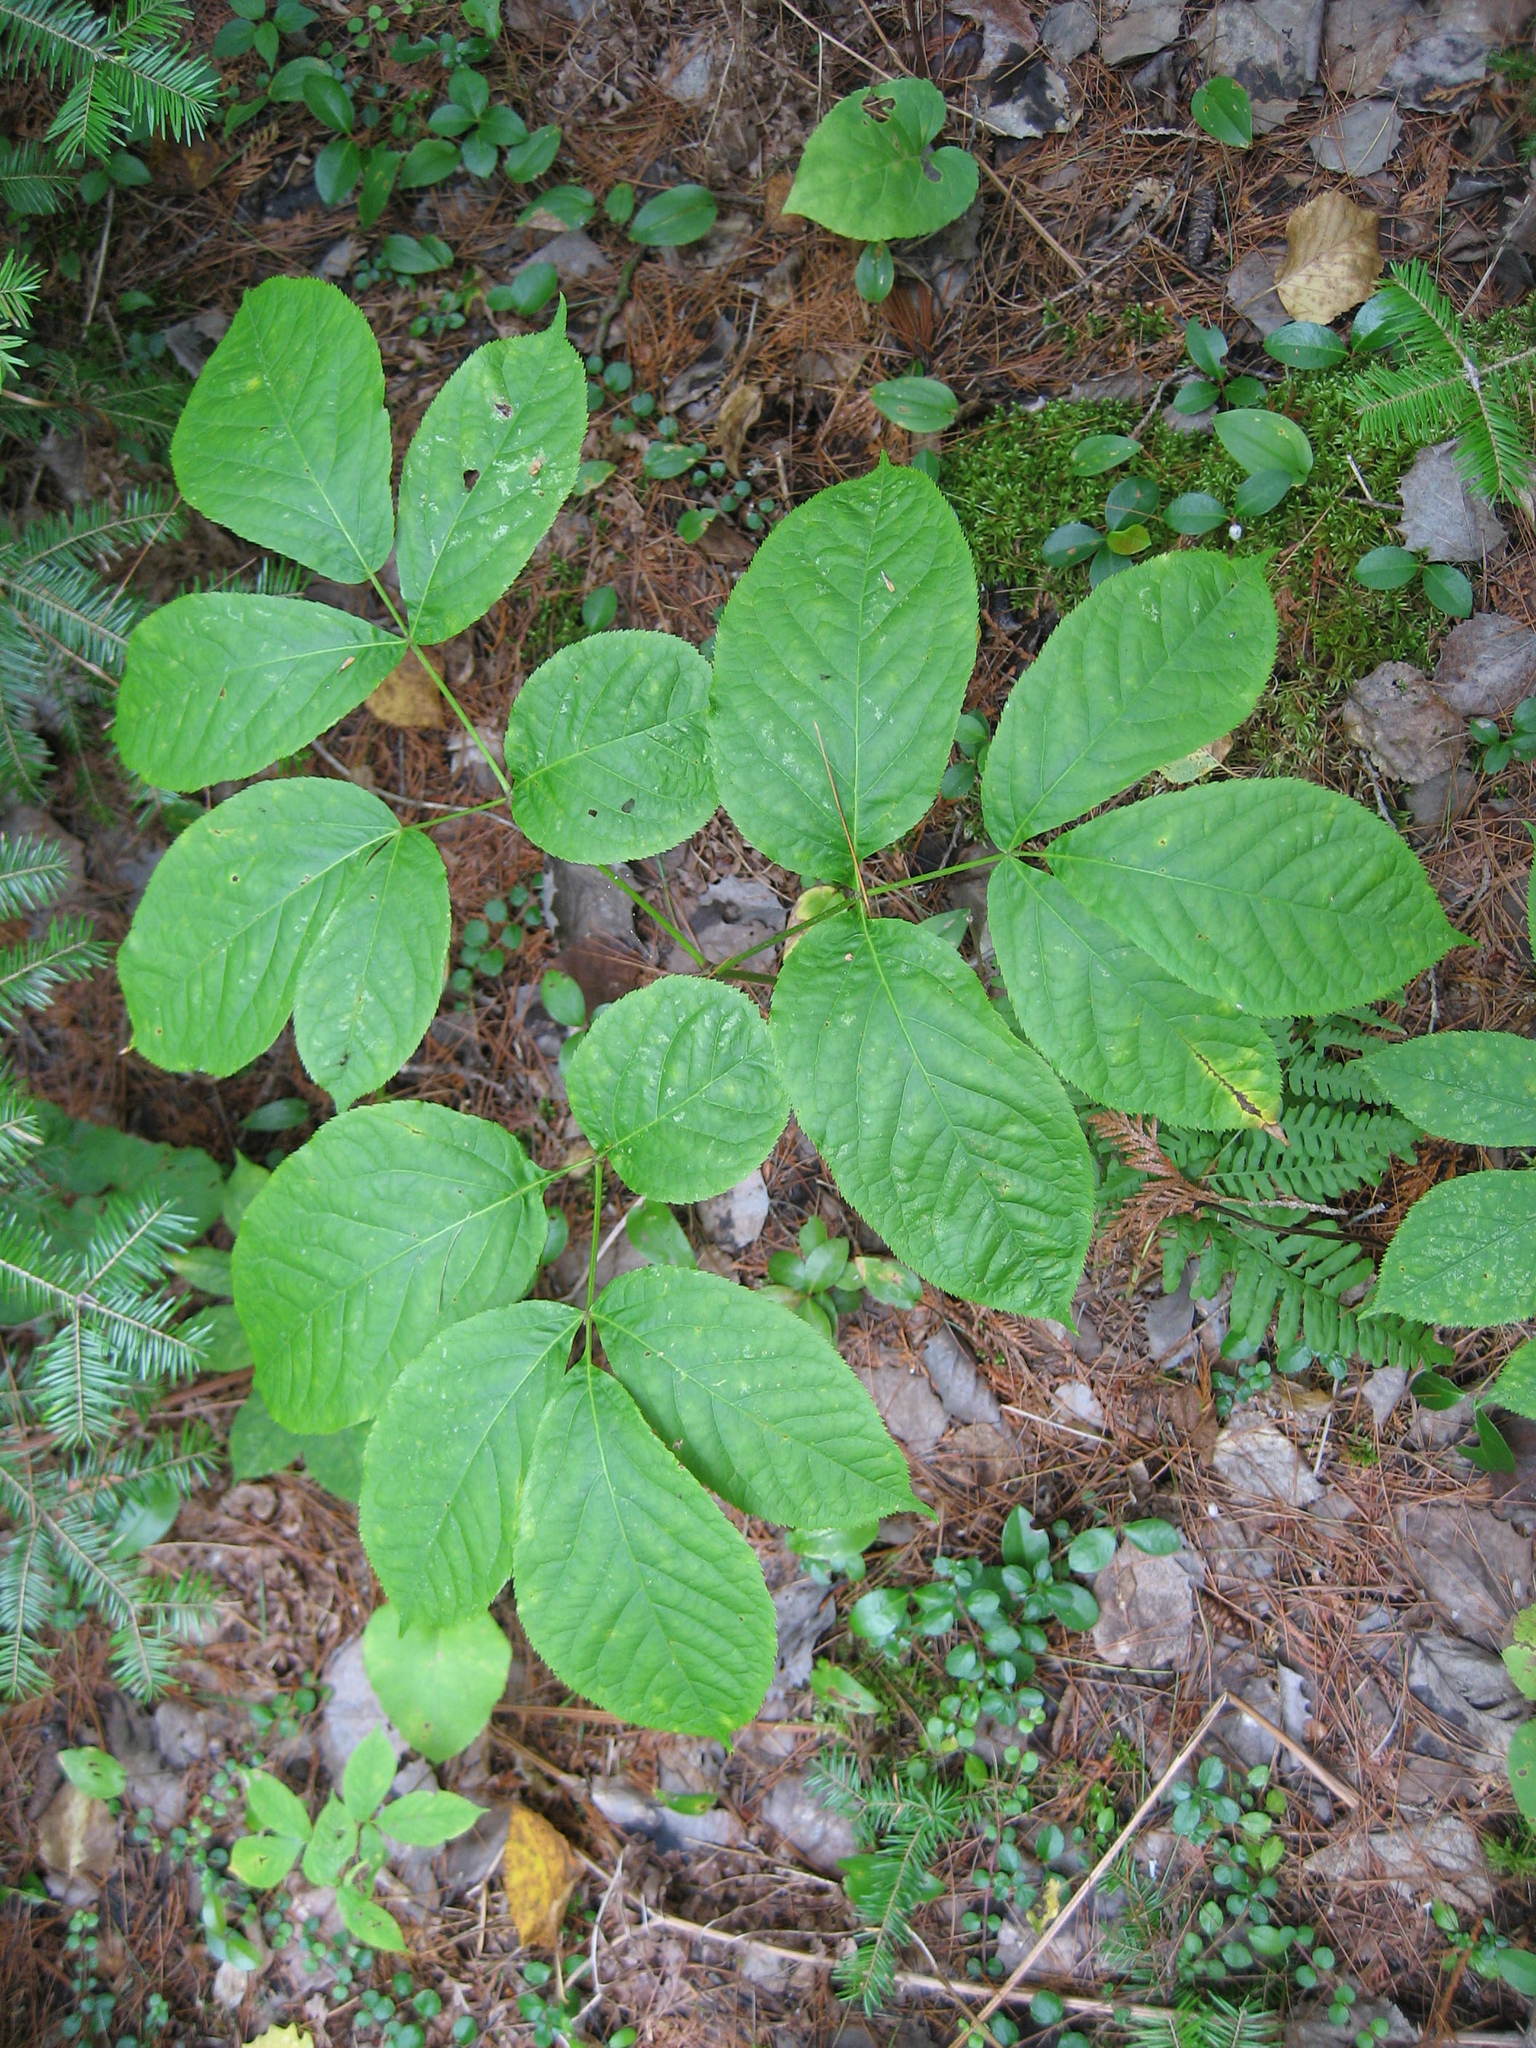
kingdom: Plantae
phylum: Tracheophyta
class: Magnoliopsida
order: Apiales
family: Araliaceae
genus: Aralia
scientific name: Aralia nudicaulis
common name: Wild sarsaparilla
